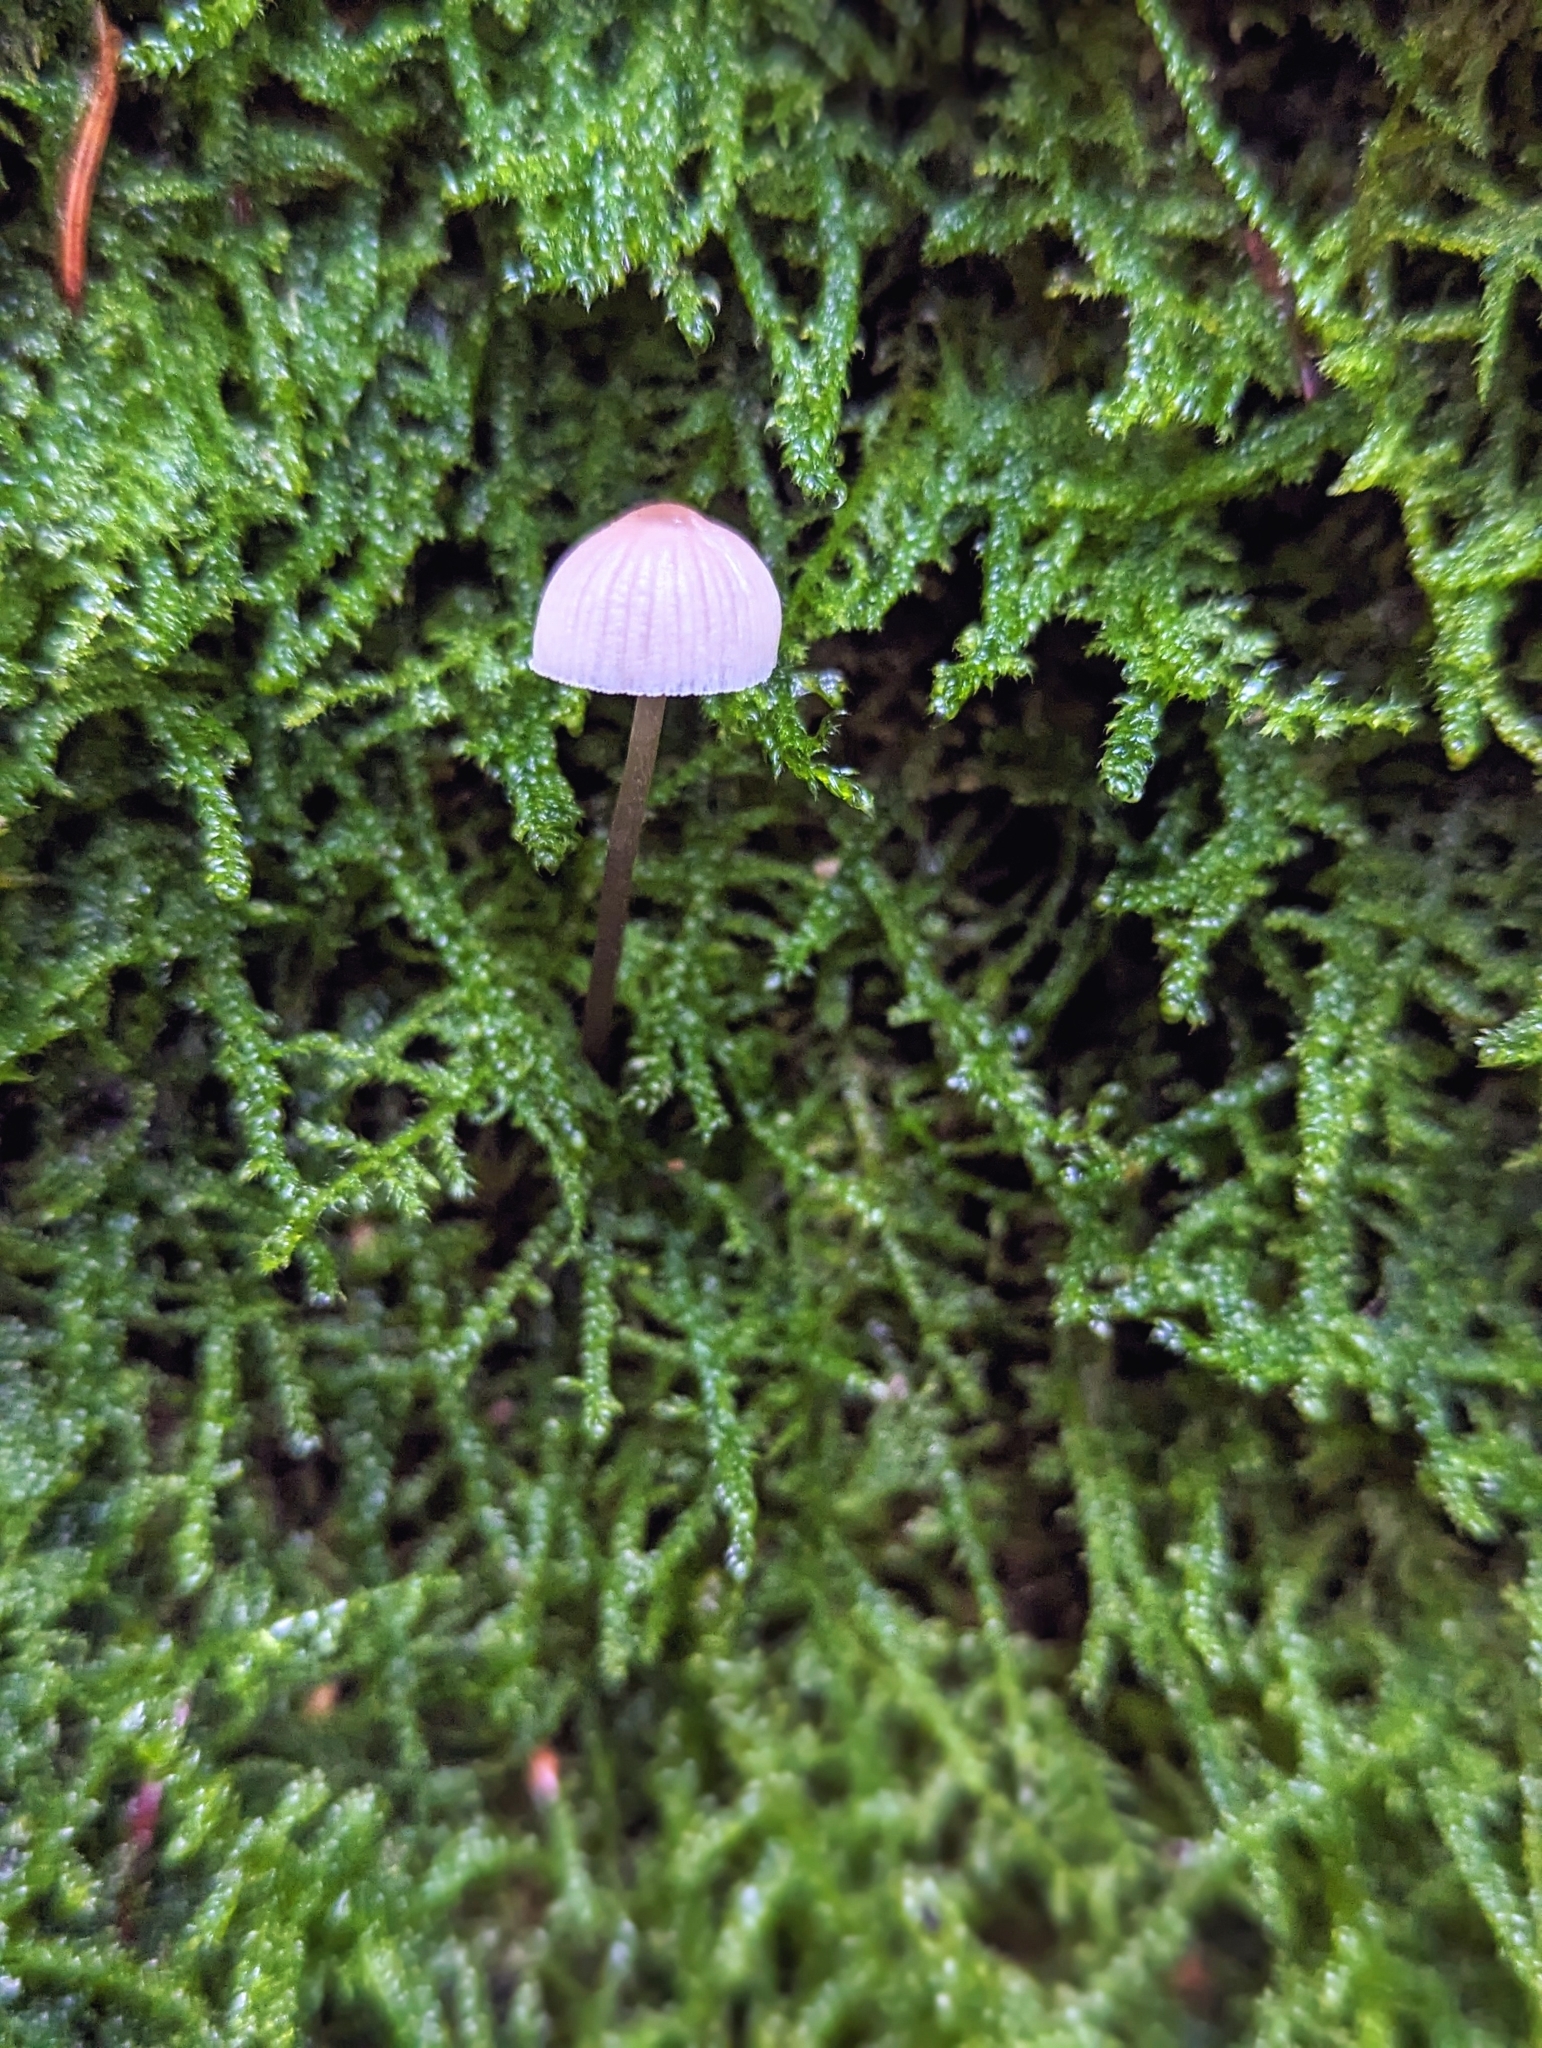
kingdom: Fungi
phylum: Basidiomycota
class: Agaricomycetes
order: Agaricales
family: Mycenaceae
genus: Mycena
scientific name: Mycena pseudocorticola
